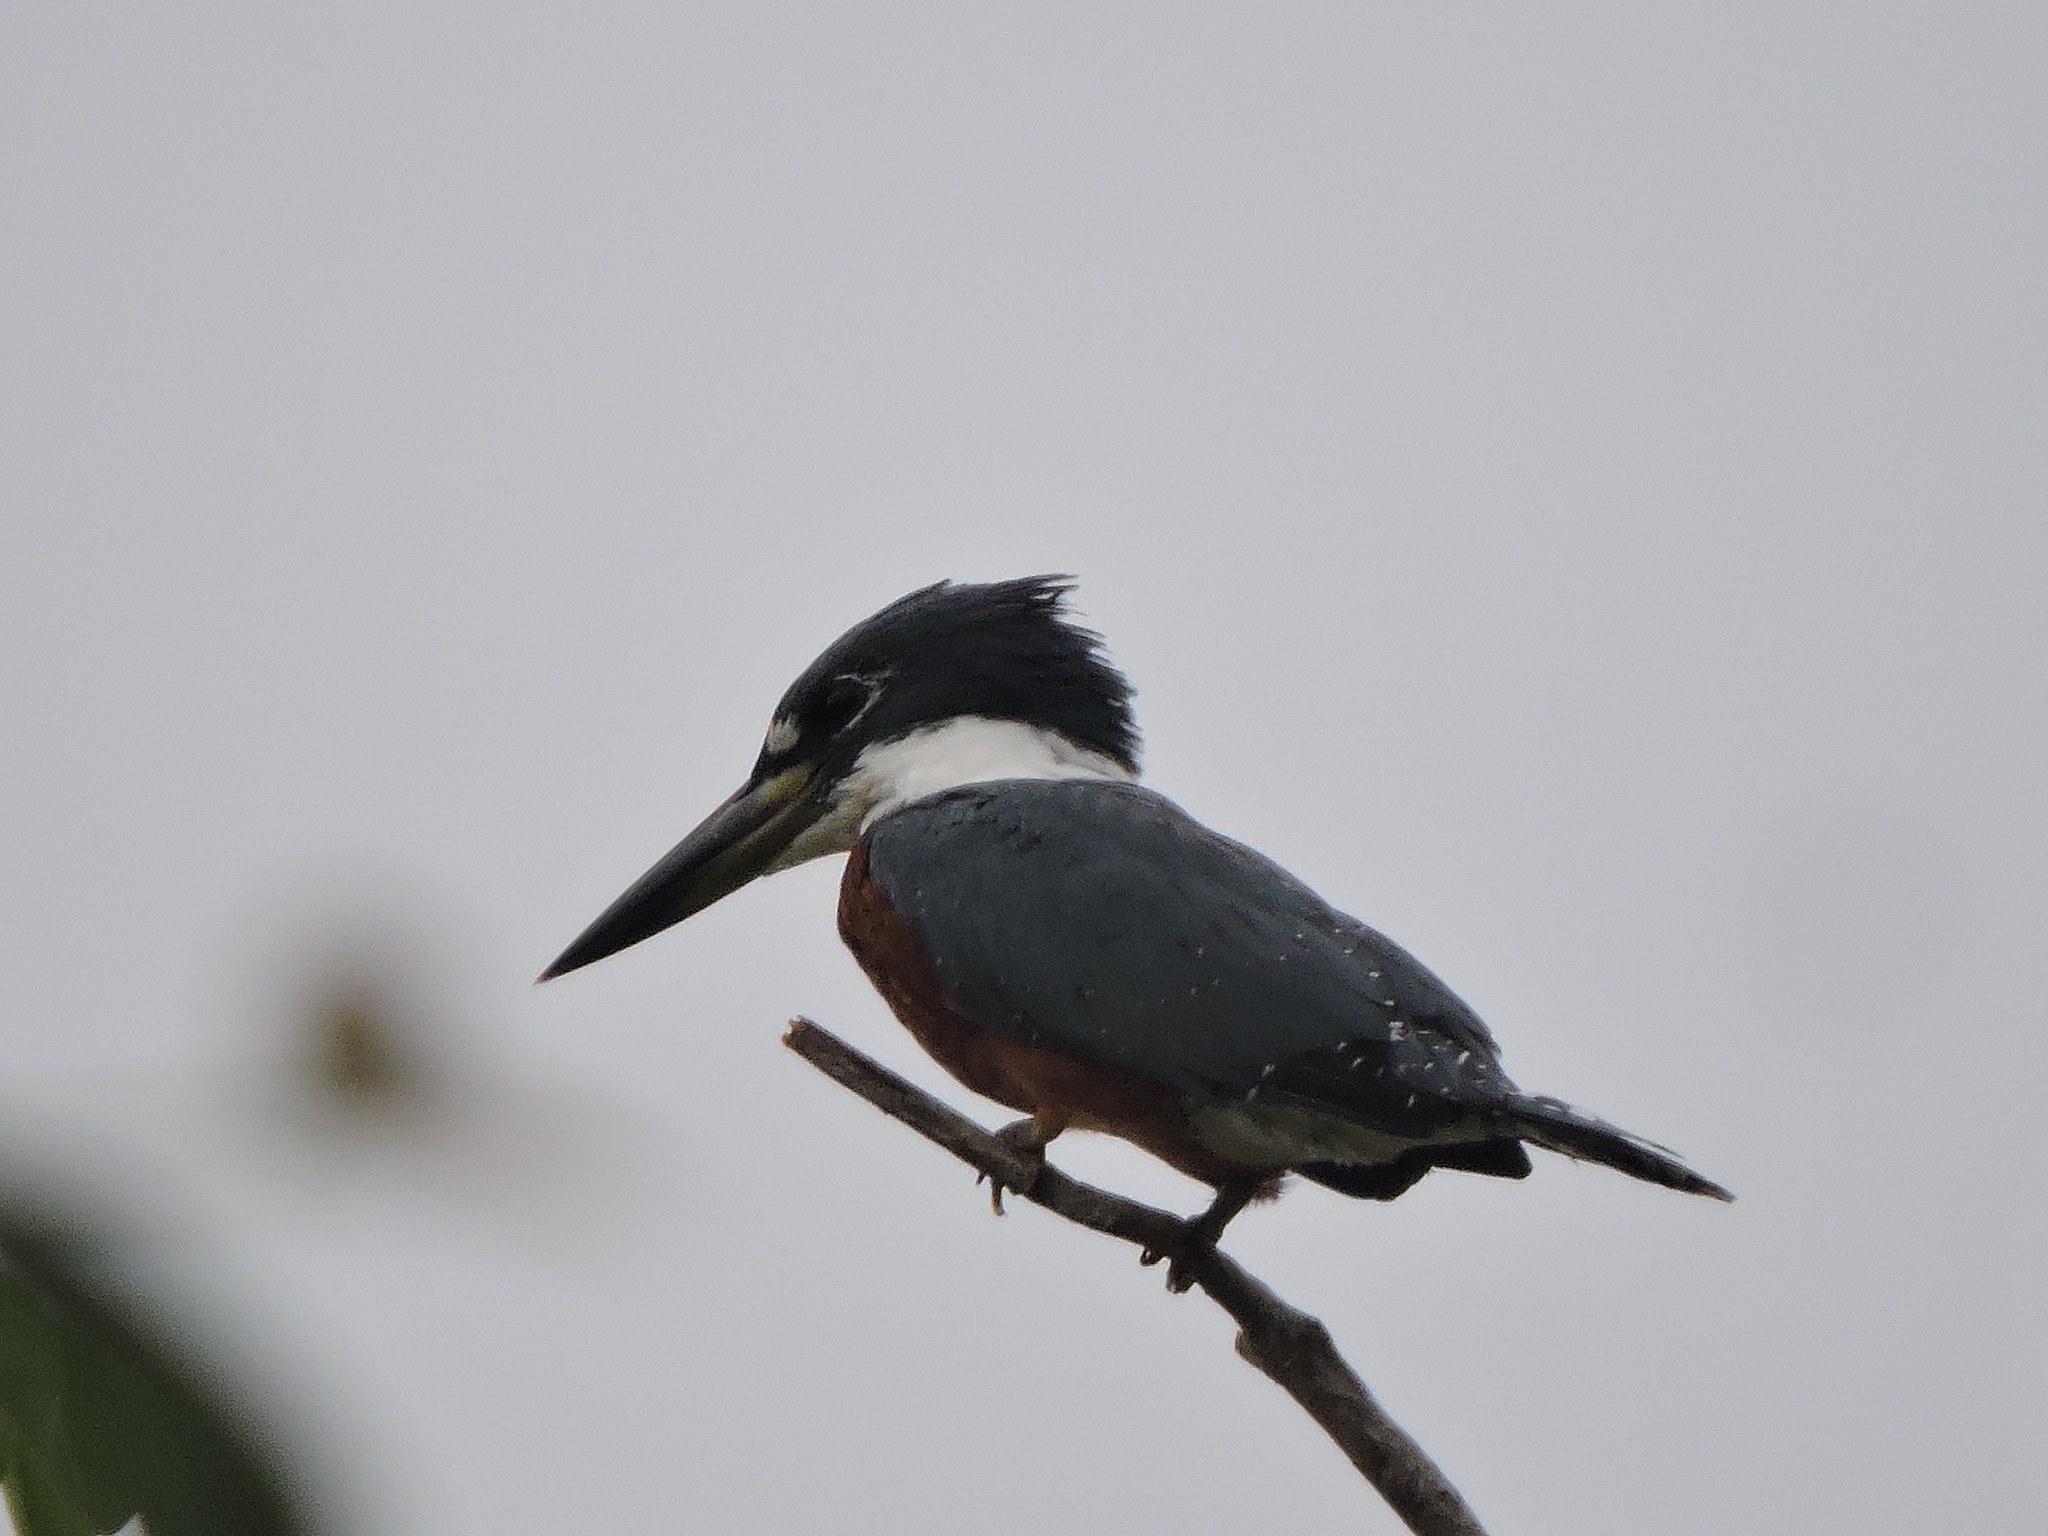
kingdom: Animalia
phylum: Chordata
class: Aves
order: Coraciiformes
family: Alcedinidae
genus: Megaceryle
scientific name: Megaceryle torquata
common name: Ringed kingfisher
